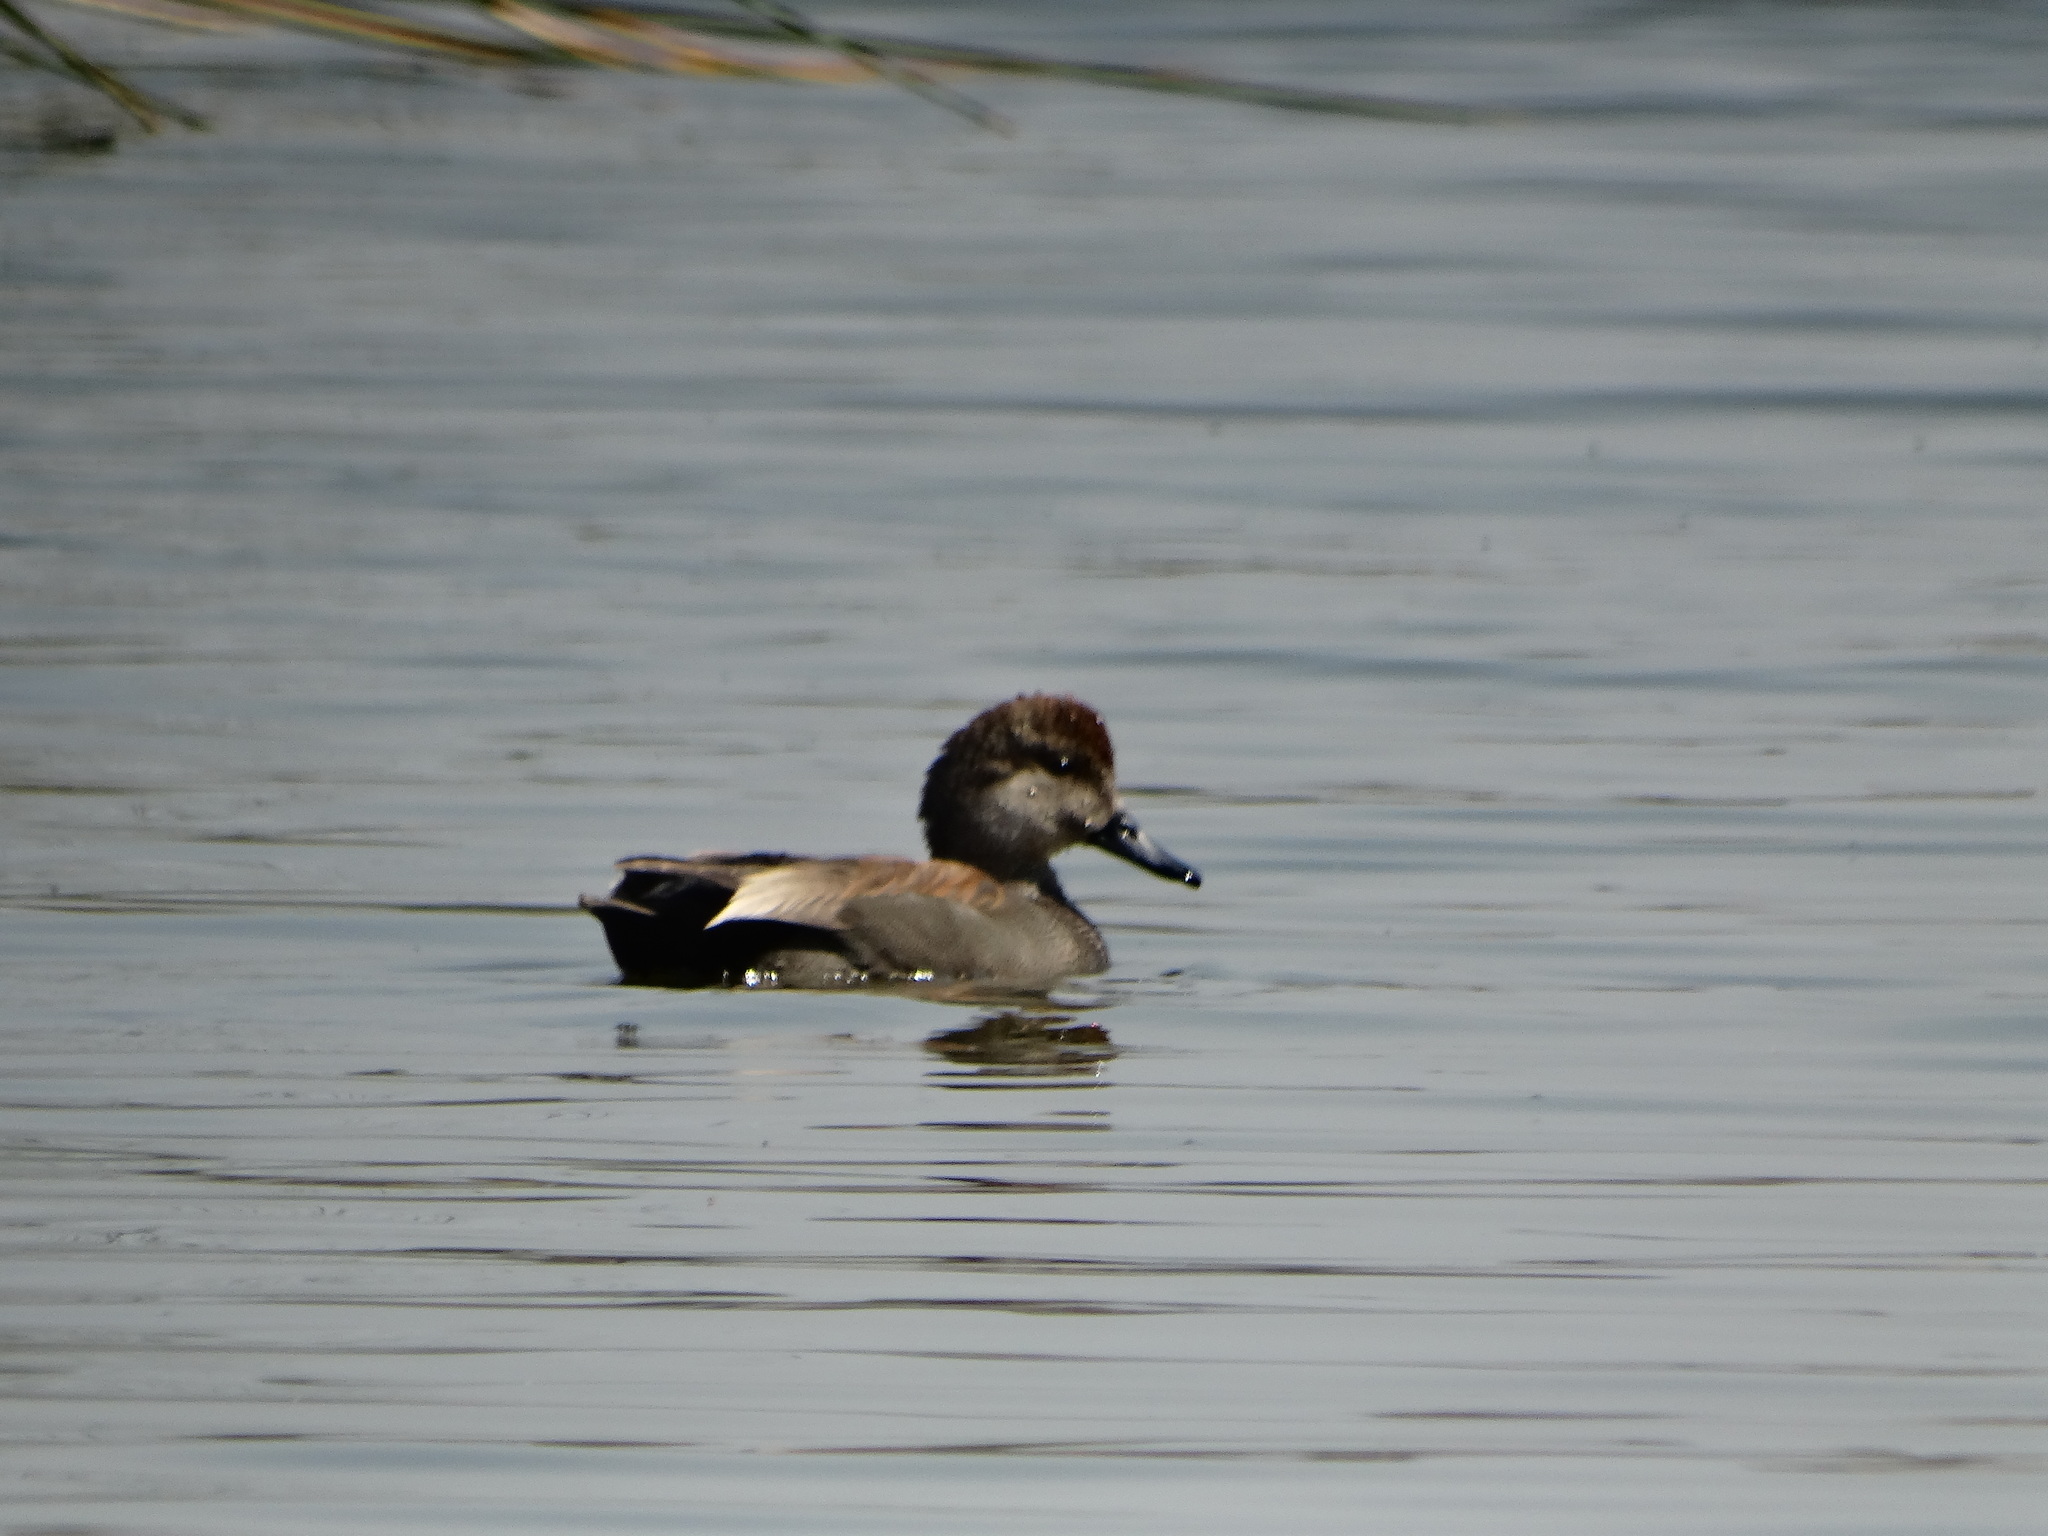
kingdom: Animalia
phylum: Chordata
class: Aves
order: Anseriformes
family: Anatidae
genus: Mareca
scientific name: Mareca strepera
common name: Gadwall
